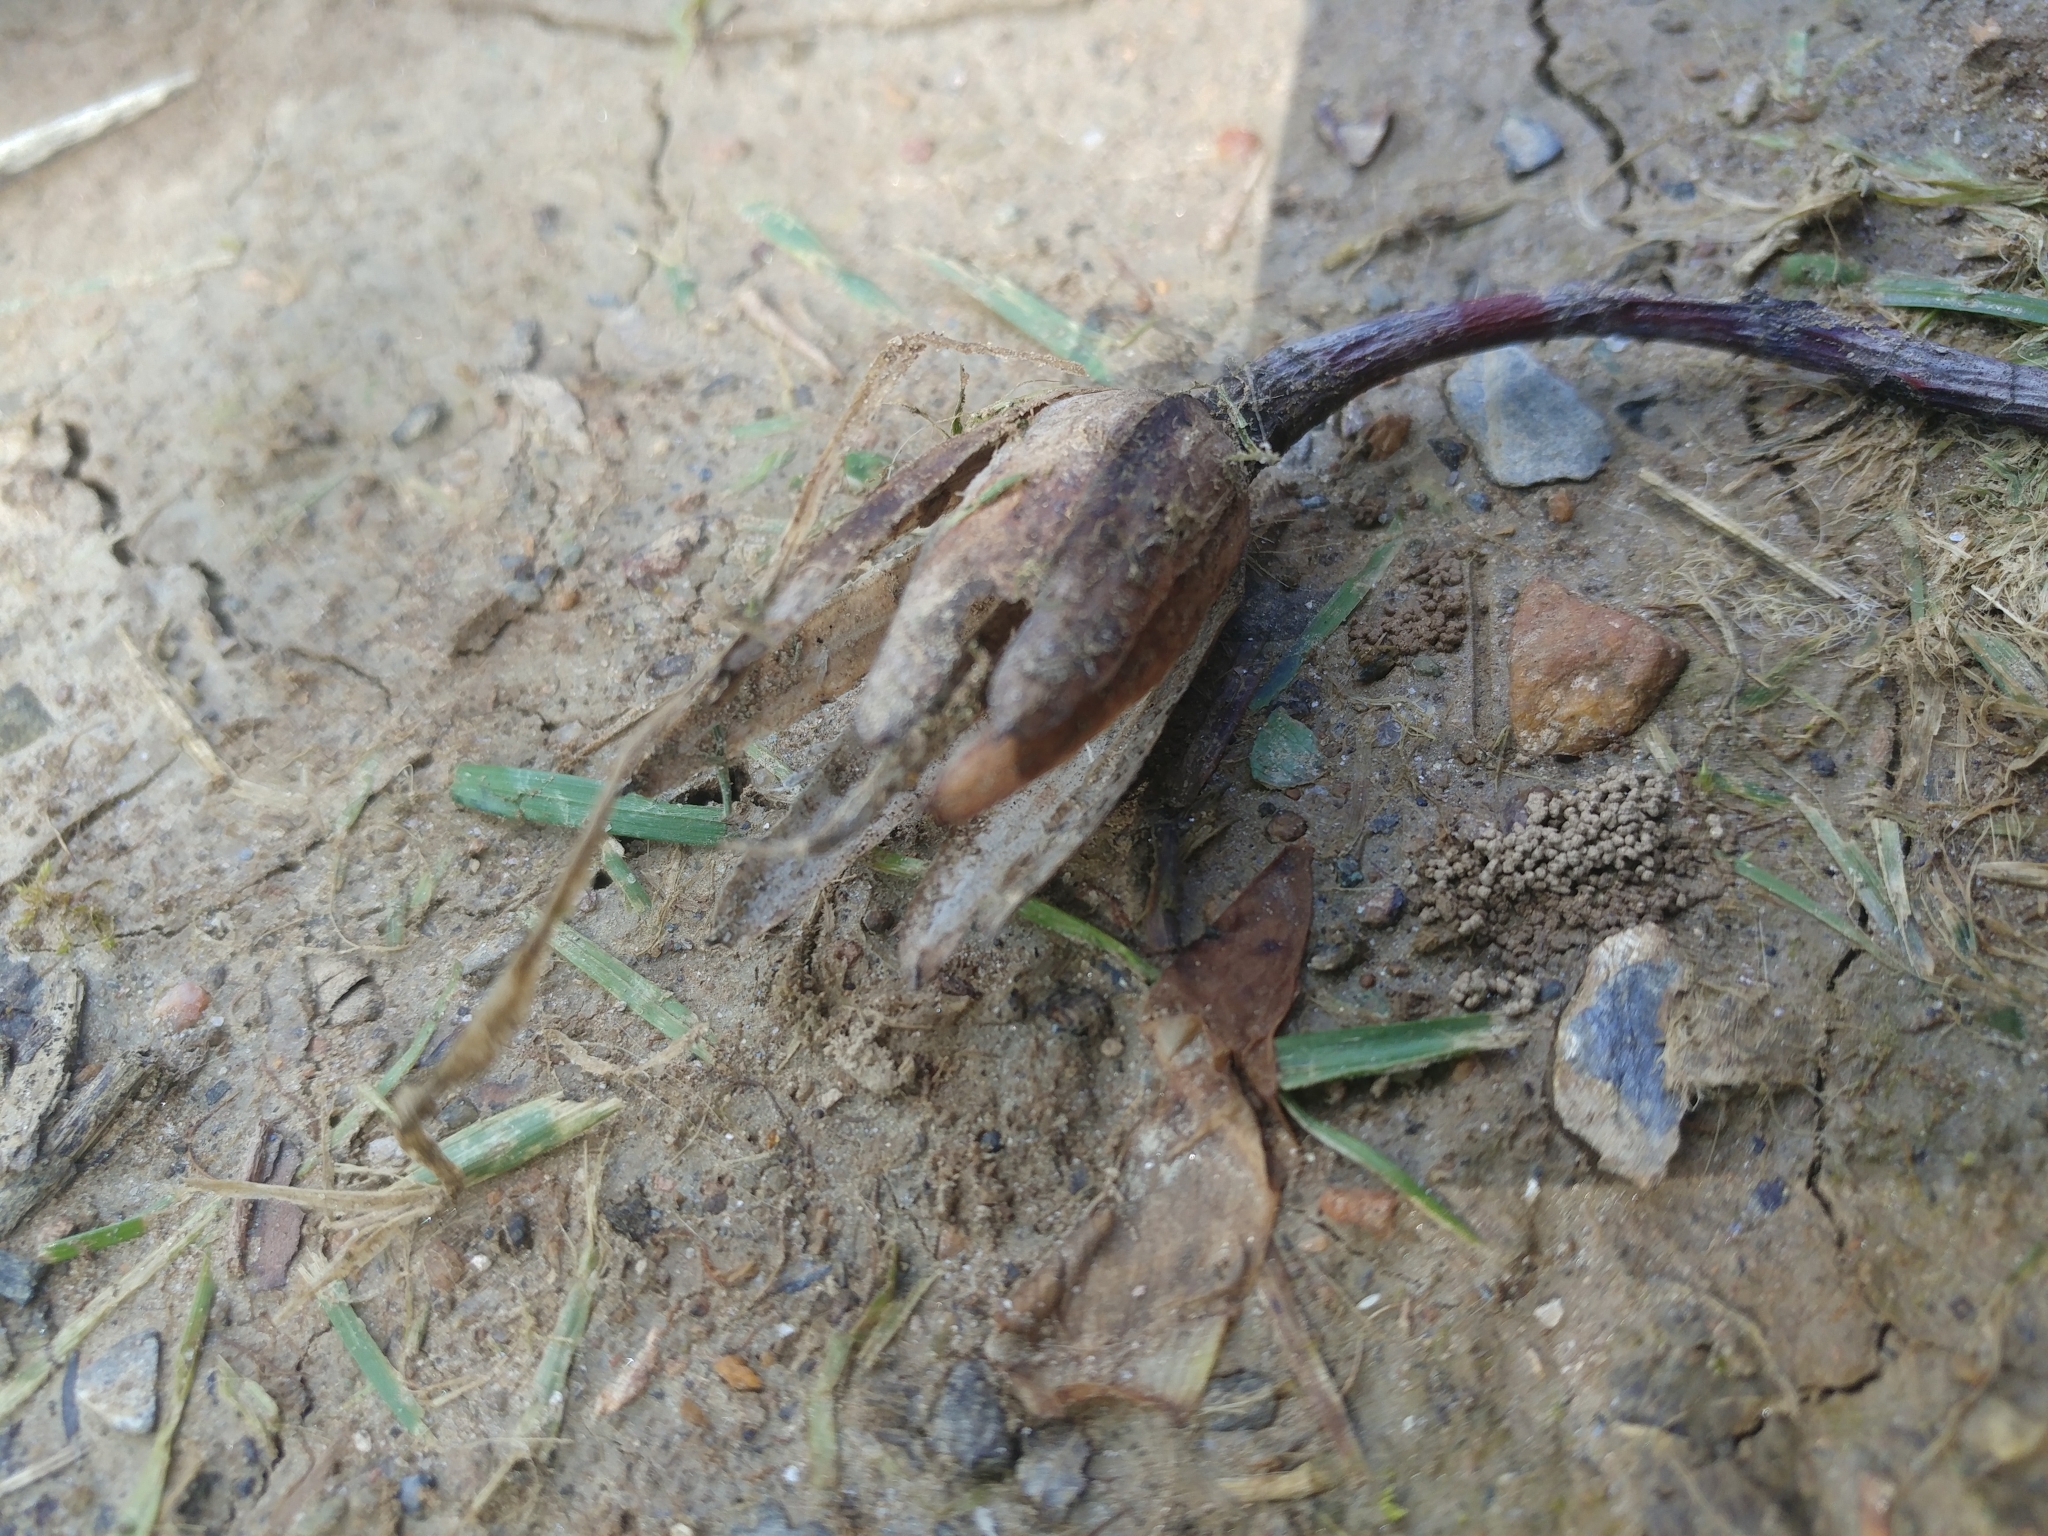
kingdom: Plantae
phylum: Tracheophyta
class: Magnoliopsida
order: Magnoliales
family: Magnoliaceae
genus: Liriodendron
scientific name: Liriodendron tulipifera
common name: Tulip tree
